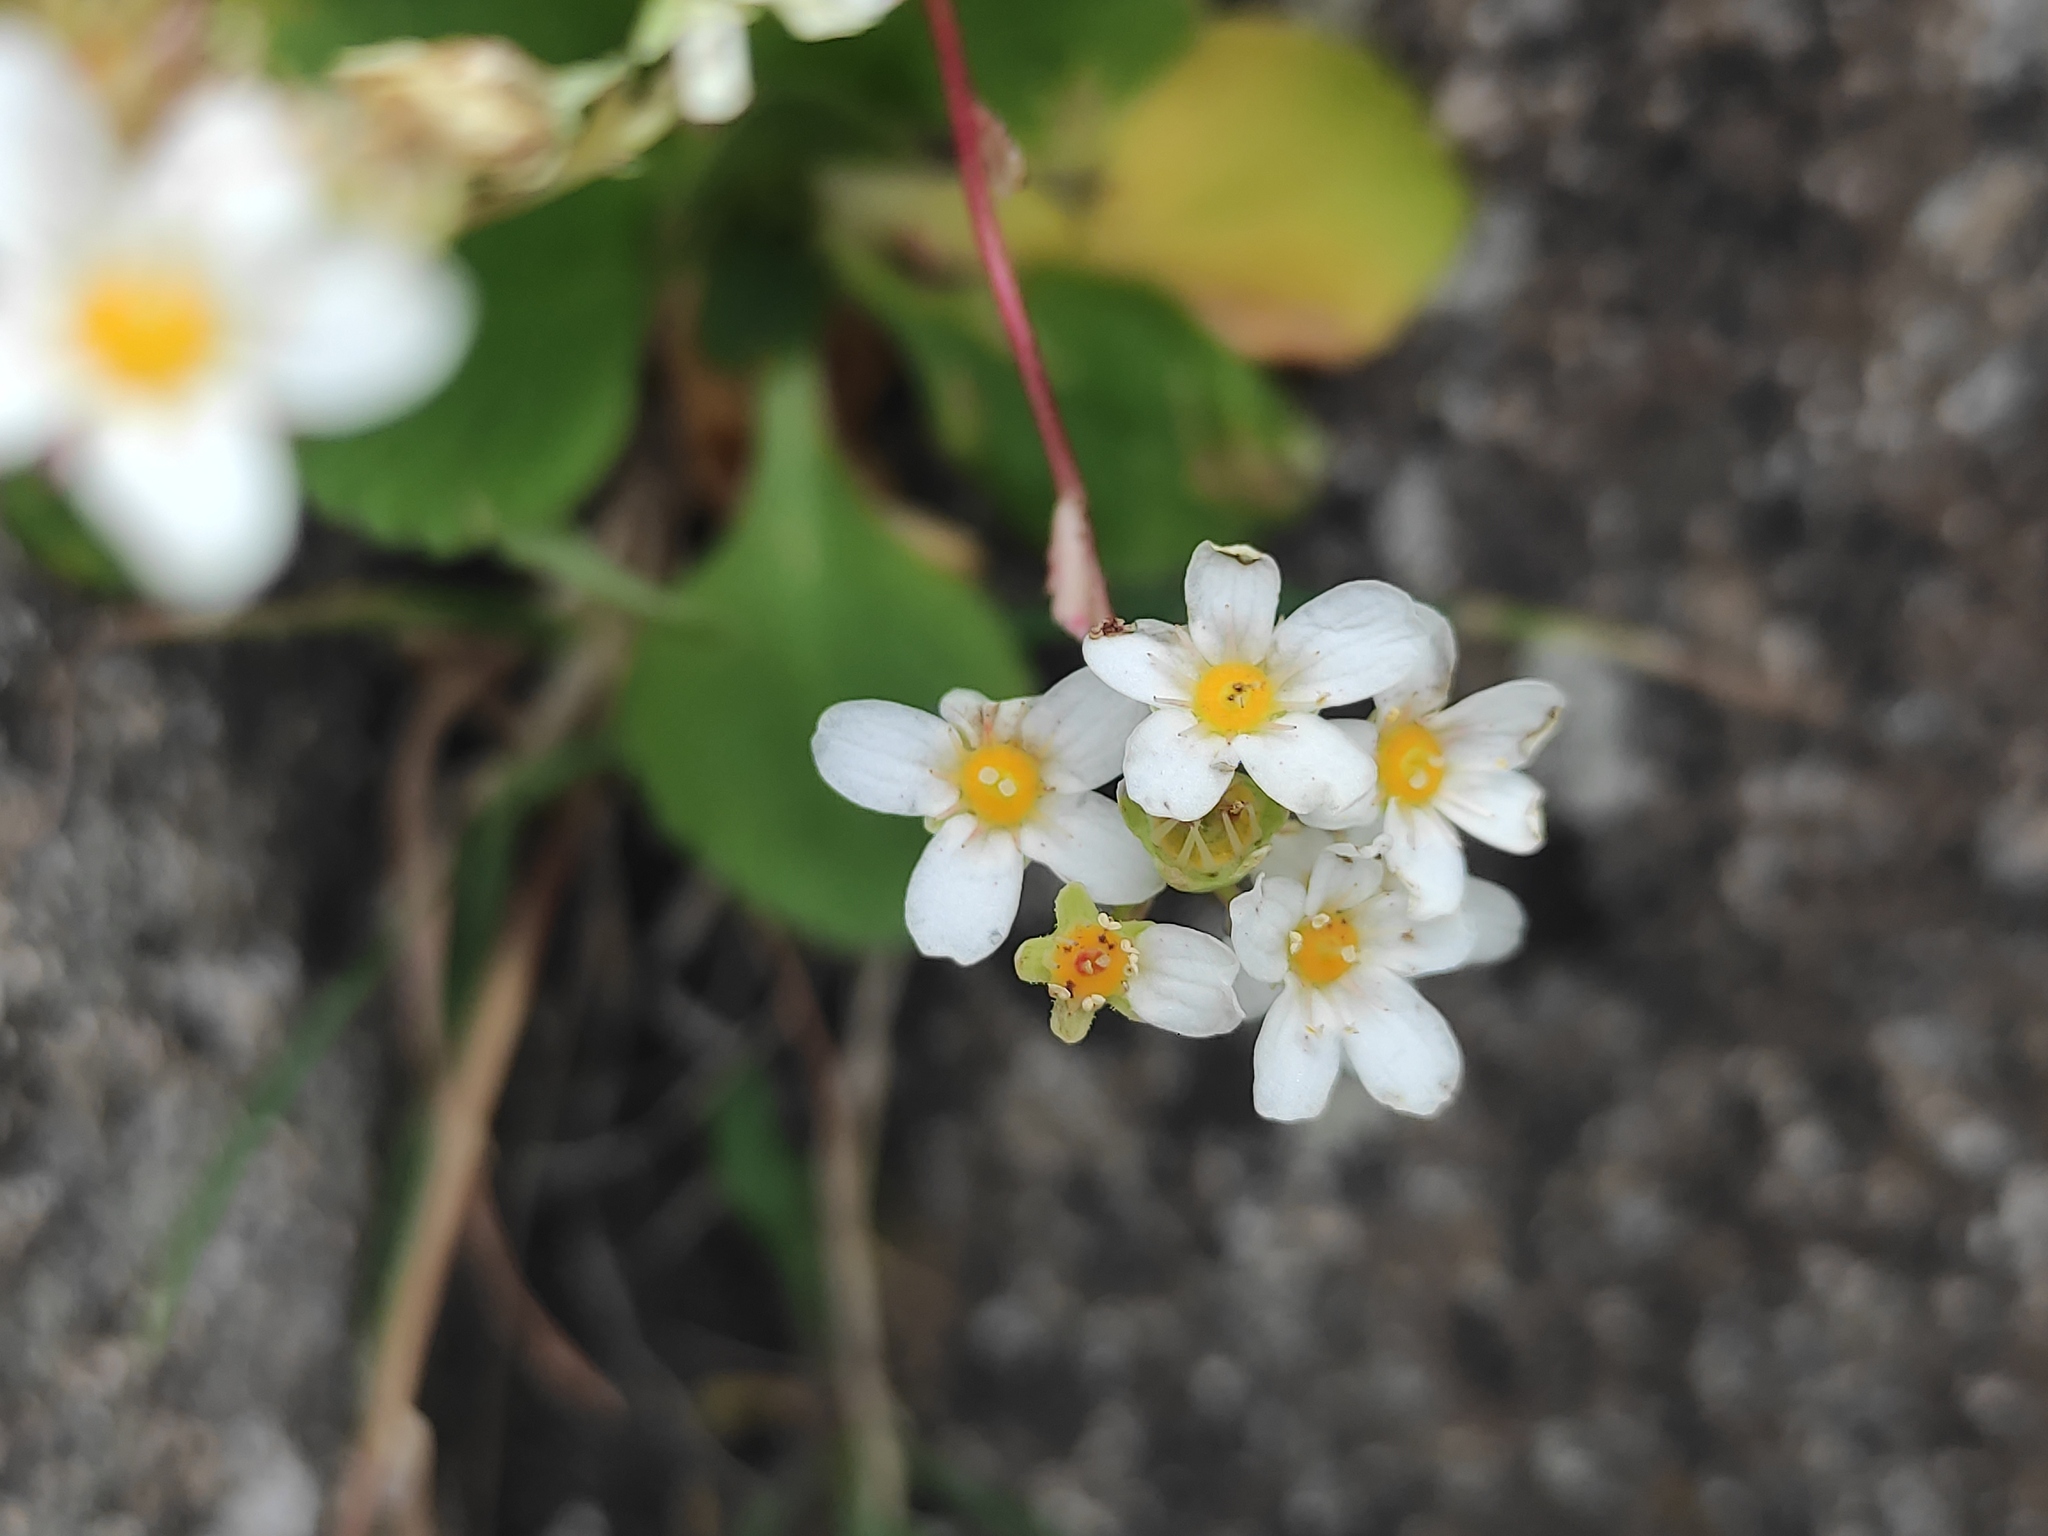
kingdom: Plantae
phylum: Tracheophyta
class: Magnoliopsida
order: Saxifragales
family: Saxifragaceae
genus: Saxifraga
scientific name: Saxifraga paniculata
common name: Livelong saxifrage
